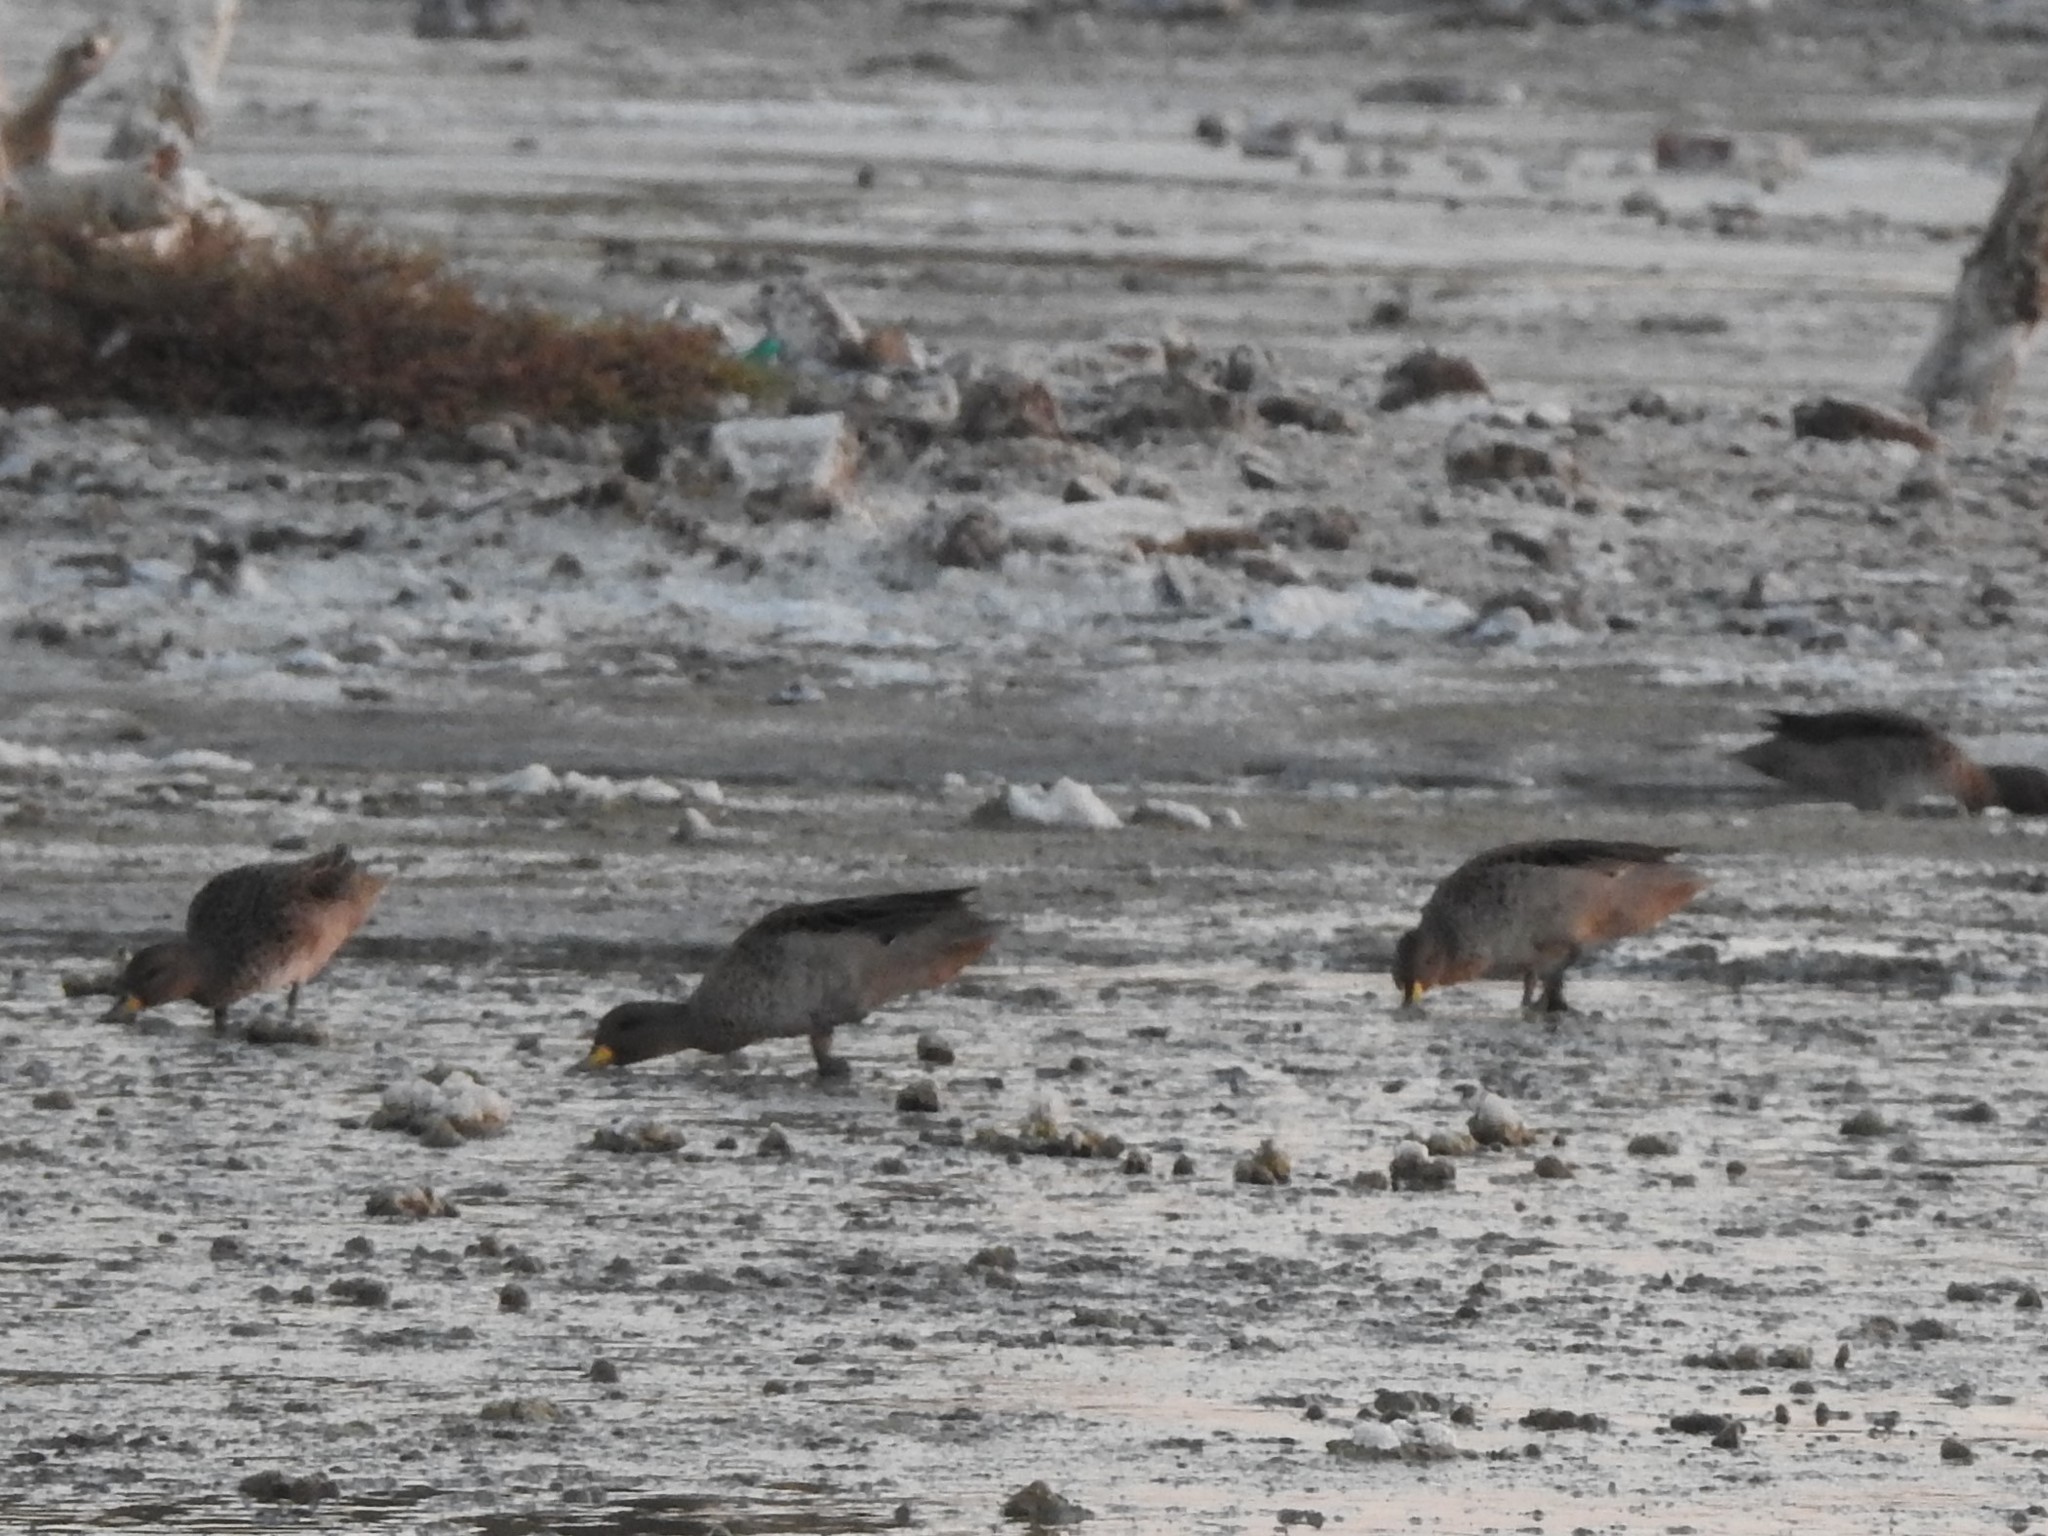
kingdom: Animalia
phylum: Chordata
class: Aves
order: Anseriformes
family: Anatidae
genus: Anas
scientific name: Anas flavirostris
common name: Yellow-billed teal
